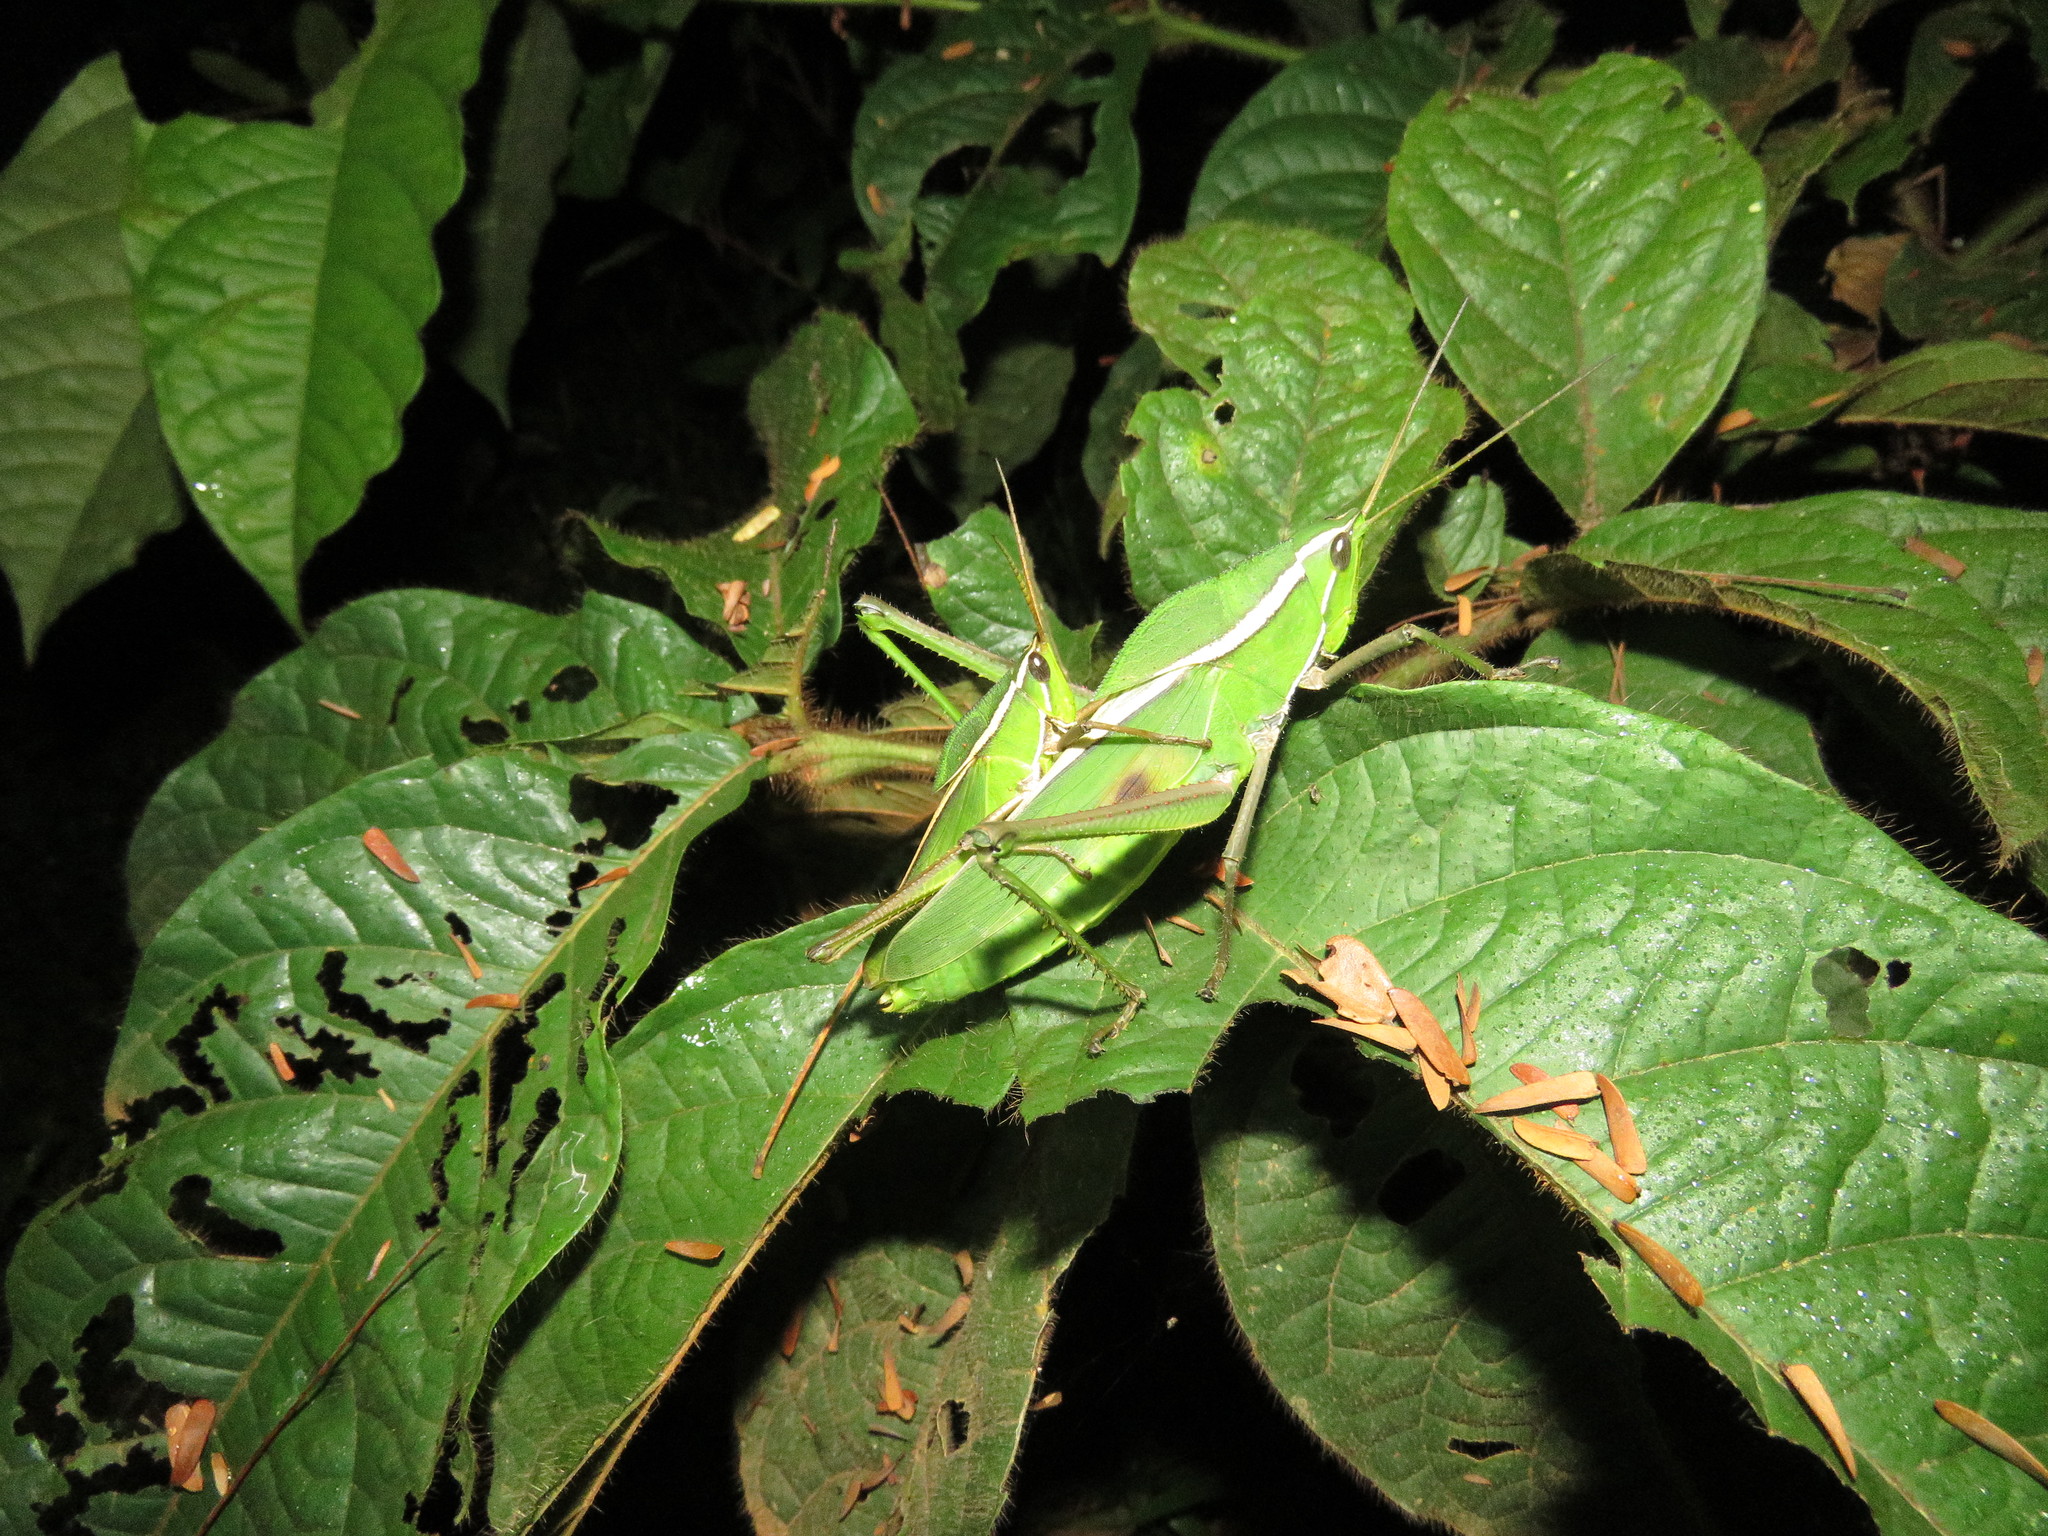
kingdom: Animalia
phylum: Arthropoda
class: Insecta
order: Orthoptera
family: Romaleidae
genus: Prionolopha
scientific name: Prionolopha serrata
